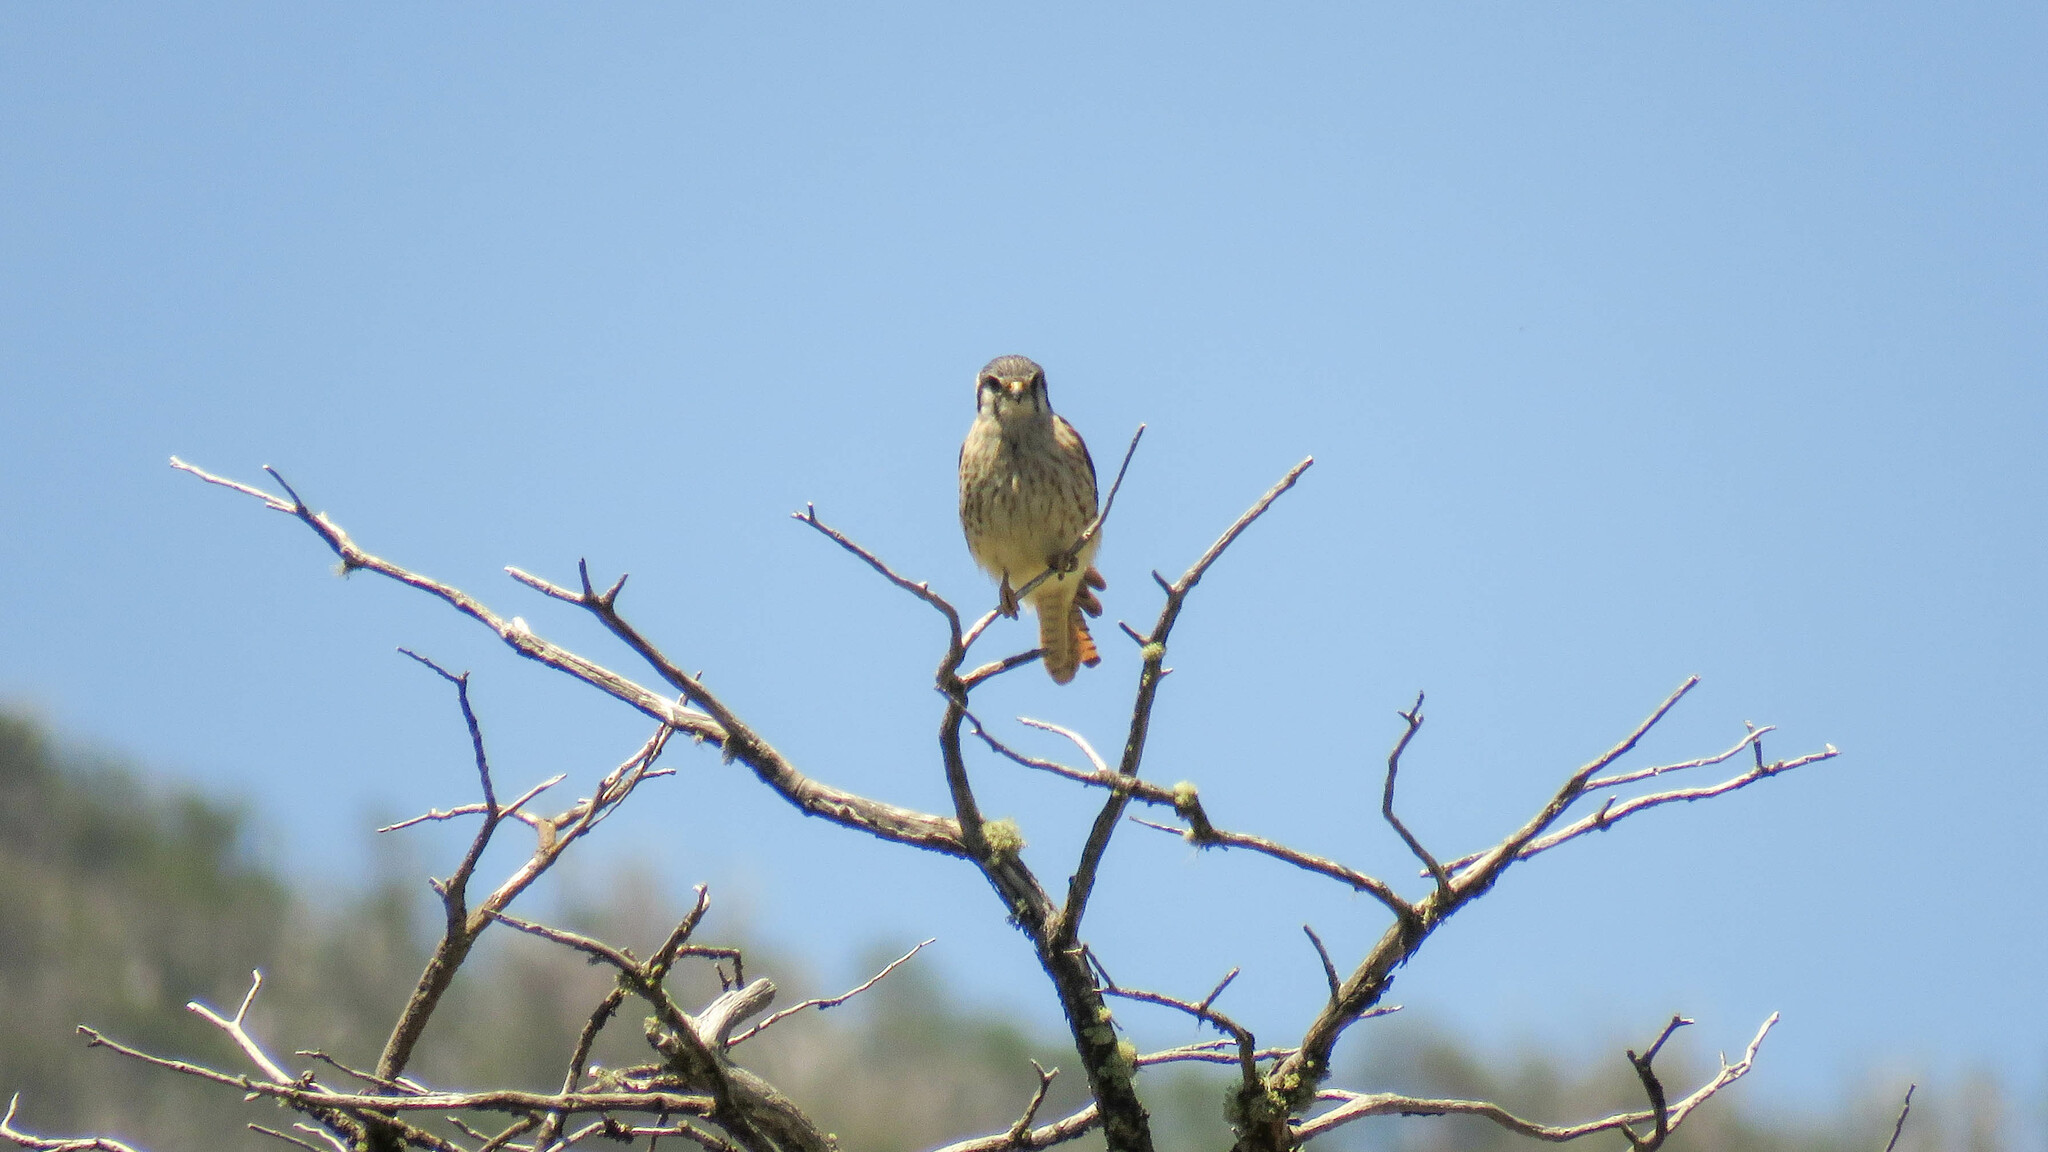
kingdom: Animalia
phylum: Chordata
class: Aves
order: Falconiformes
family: Falconidae
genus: Falco
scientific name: Falco sparverius
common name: American kestrel
